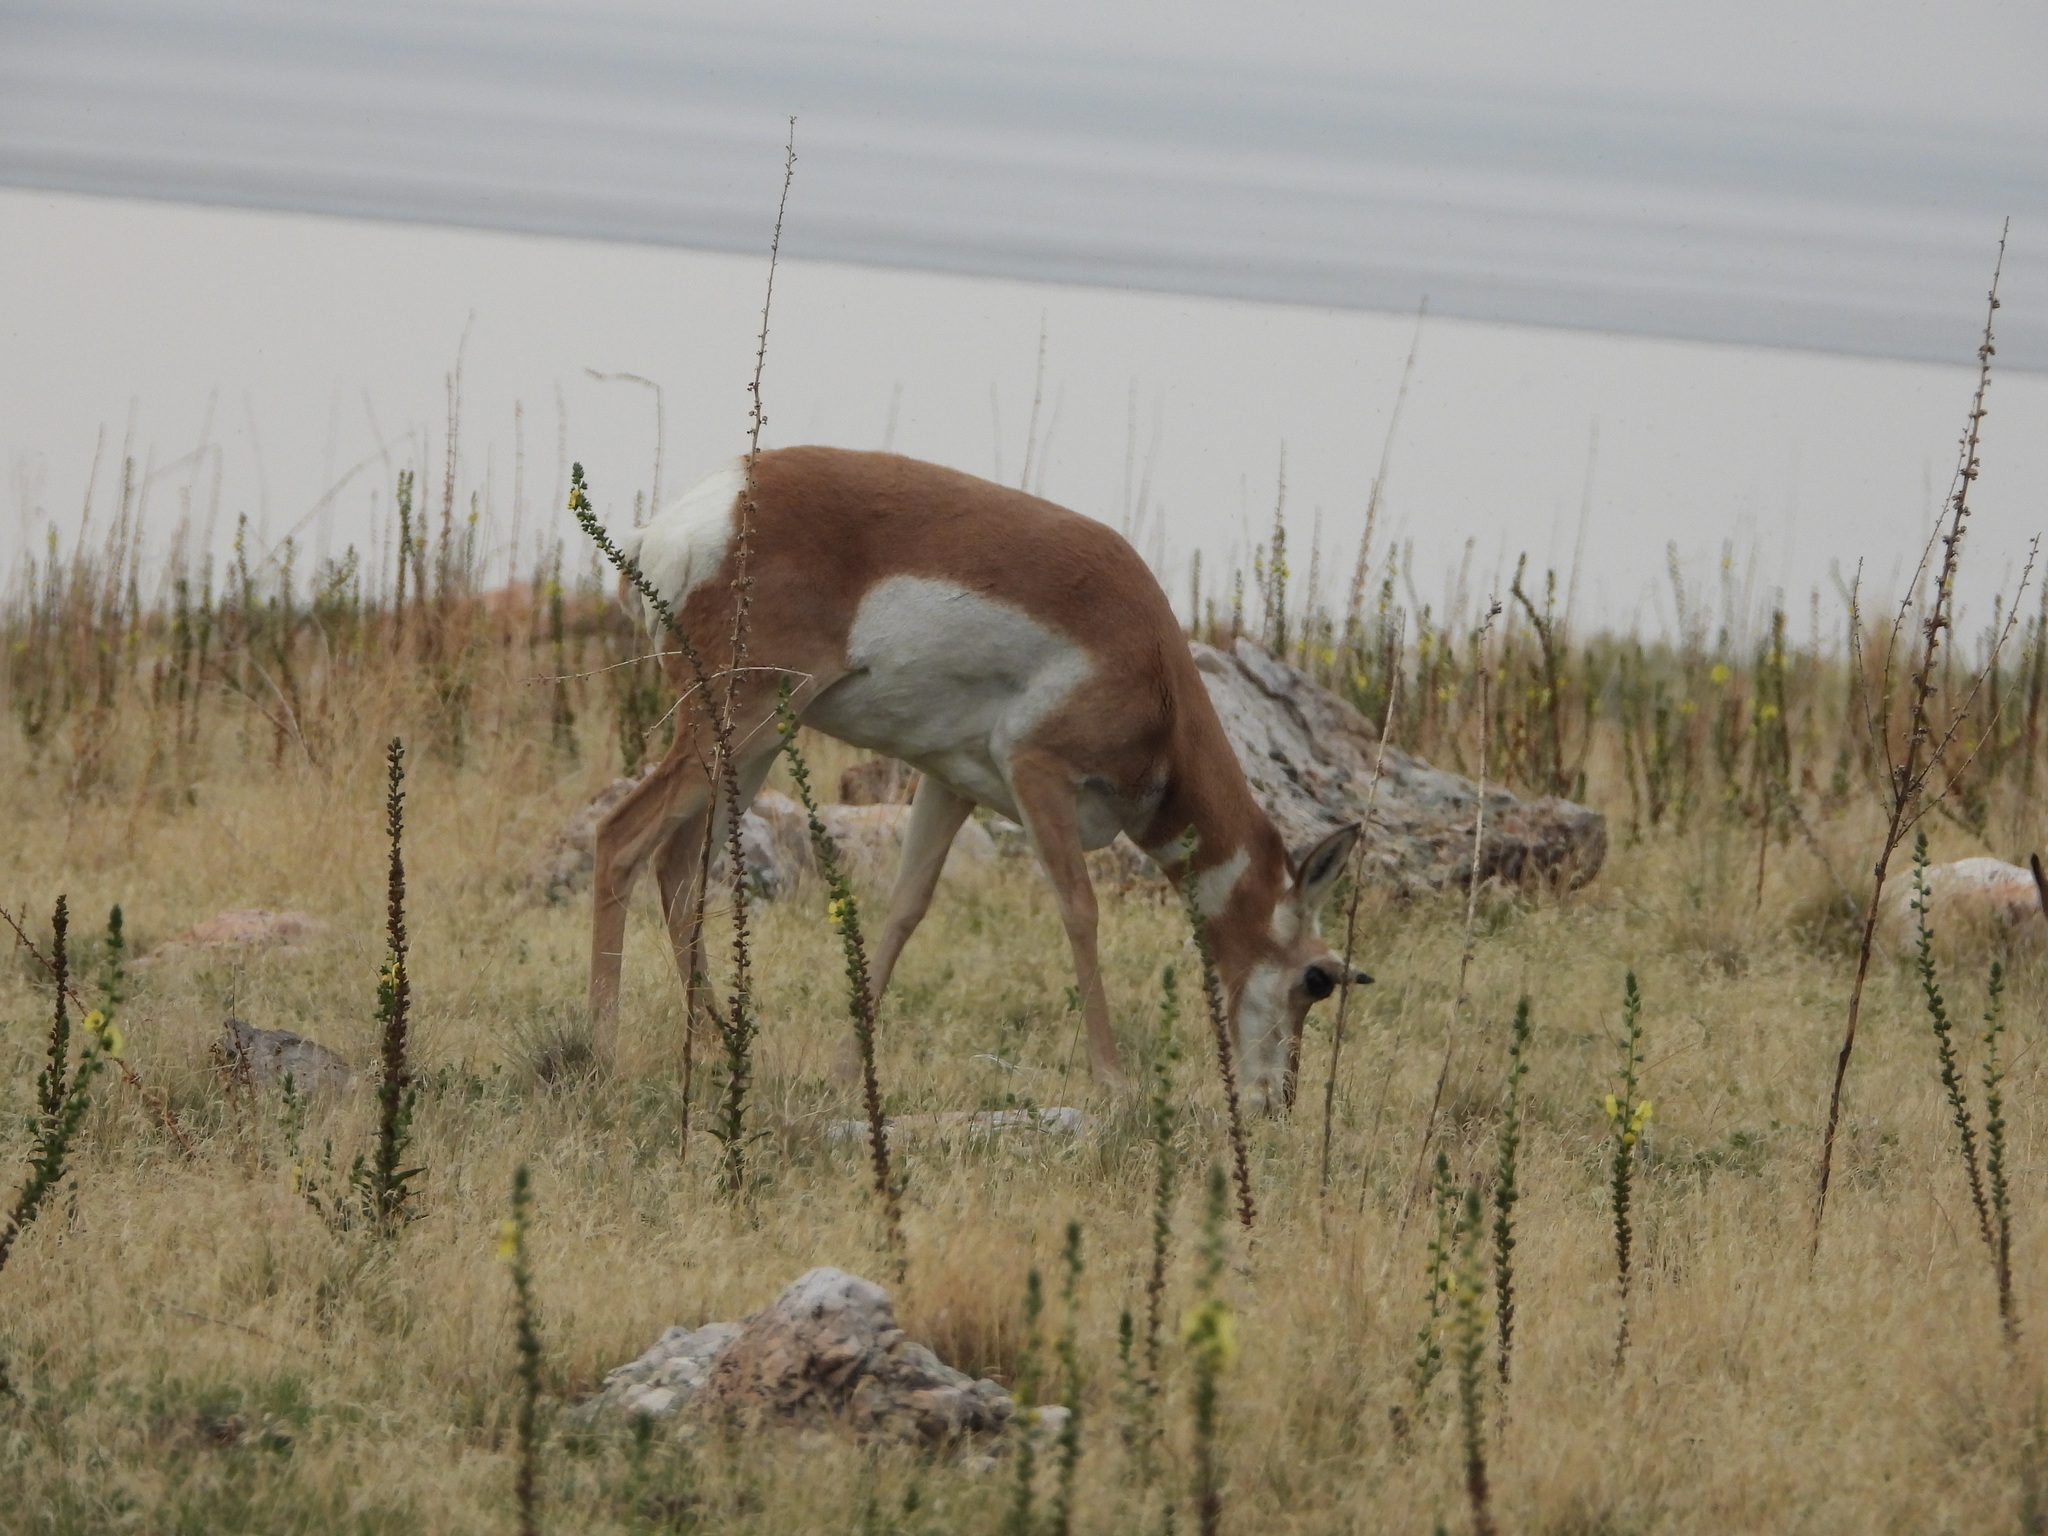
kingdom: Animalia
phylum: Chordata
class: Mammalia
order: Artiodactyla
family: Antilocapridae
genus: Antilocapra
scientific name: Antilocapra americana
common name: Pronghorn
